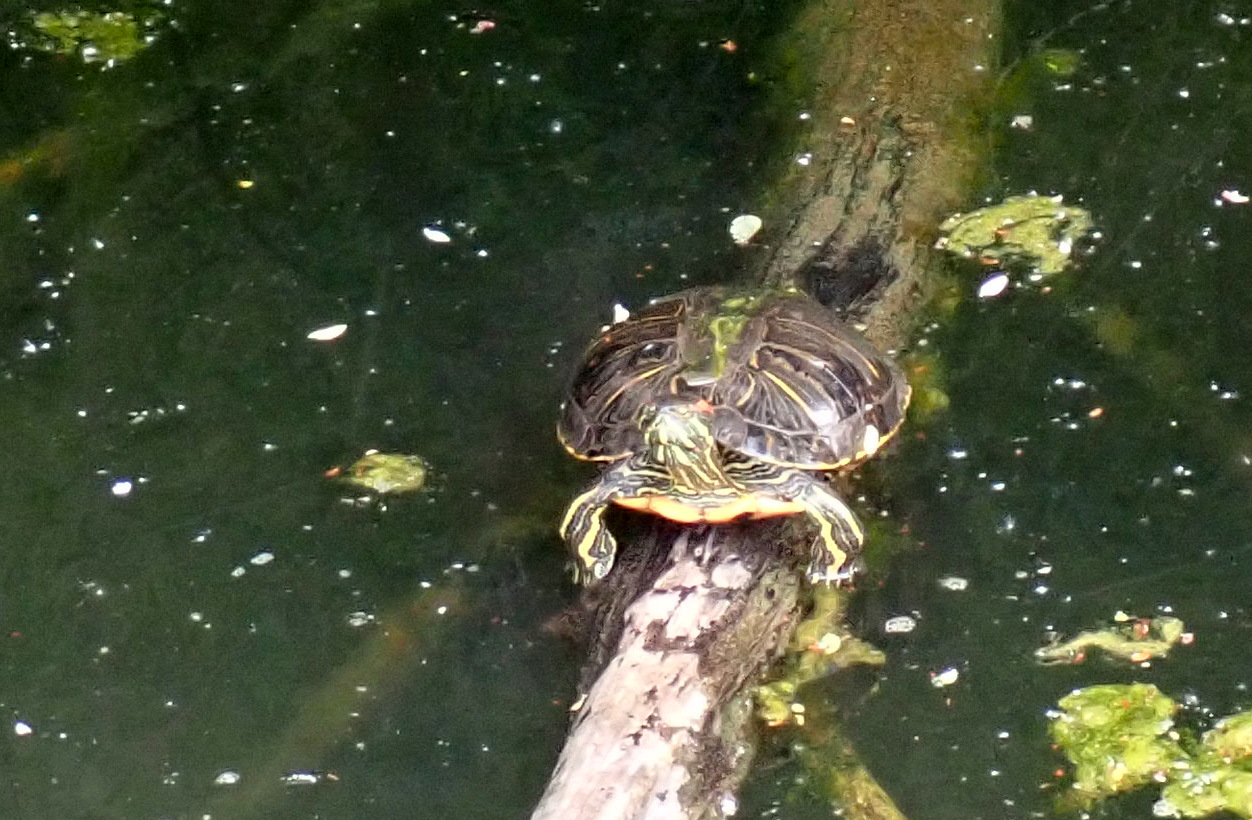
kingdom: Animalia
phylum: Chordata
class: Testudines
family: Emydidae
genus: Trachemys
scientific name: Trachemys scripta
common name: Slider
